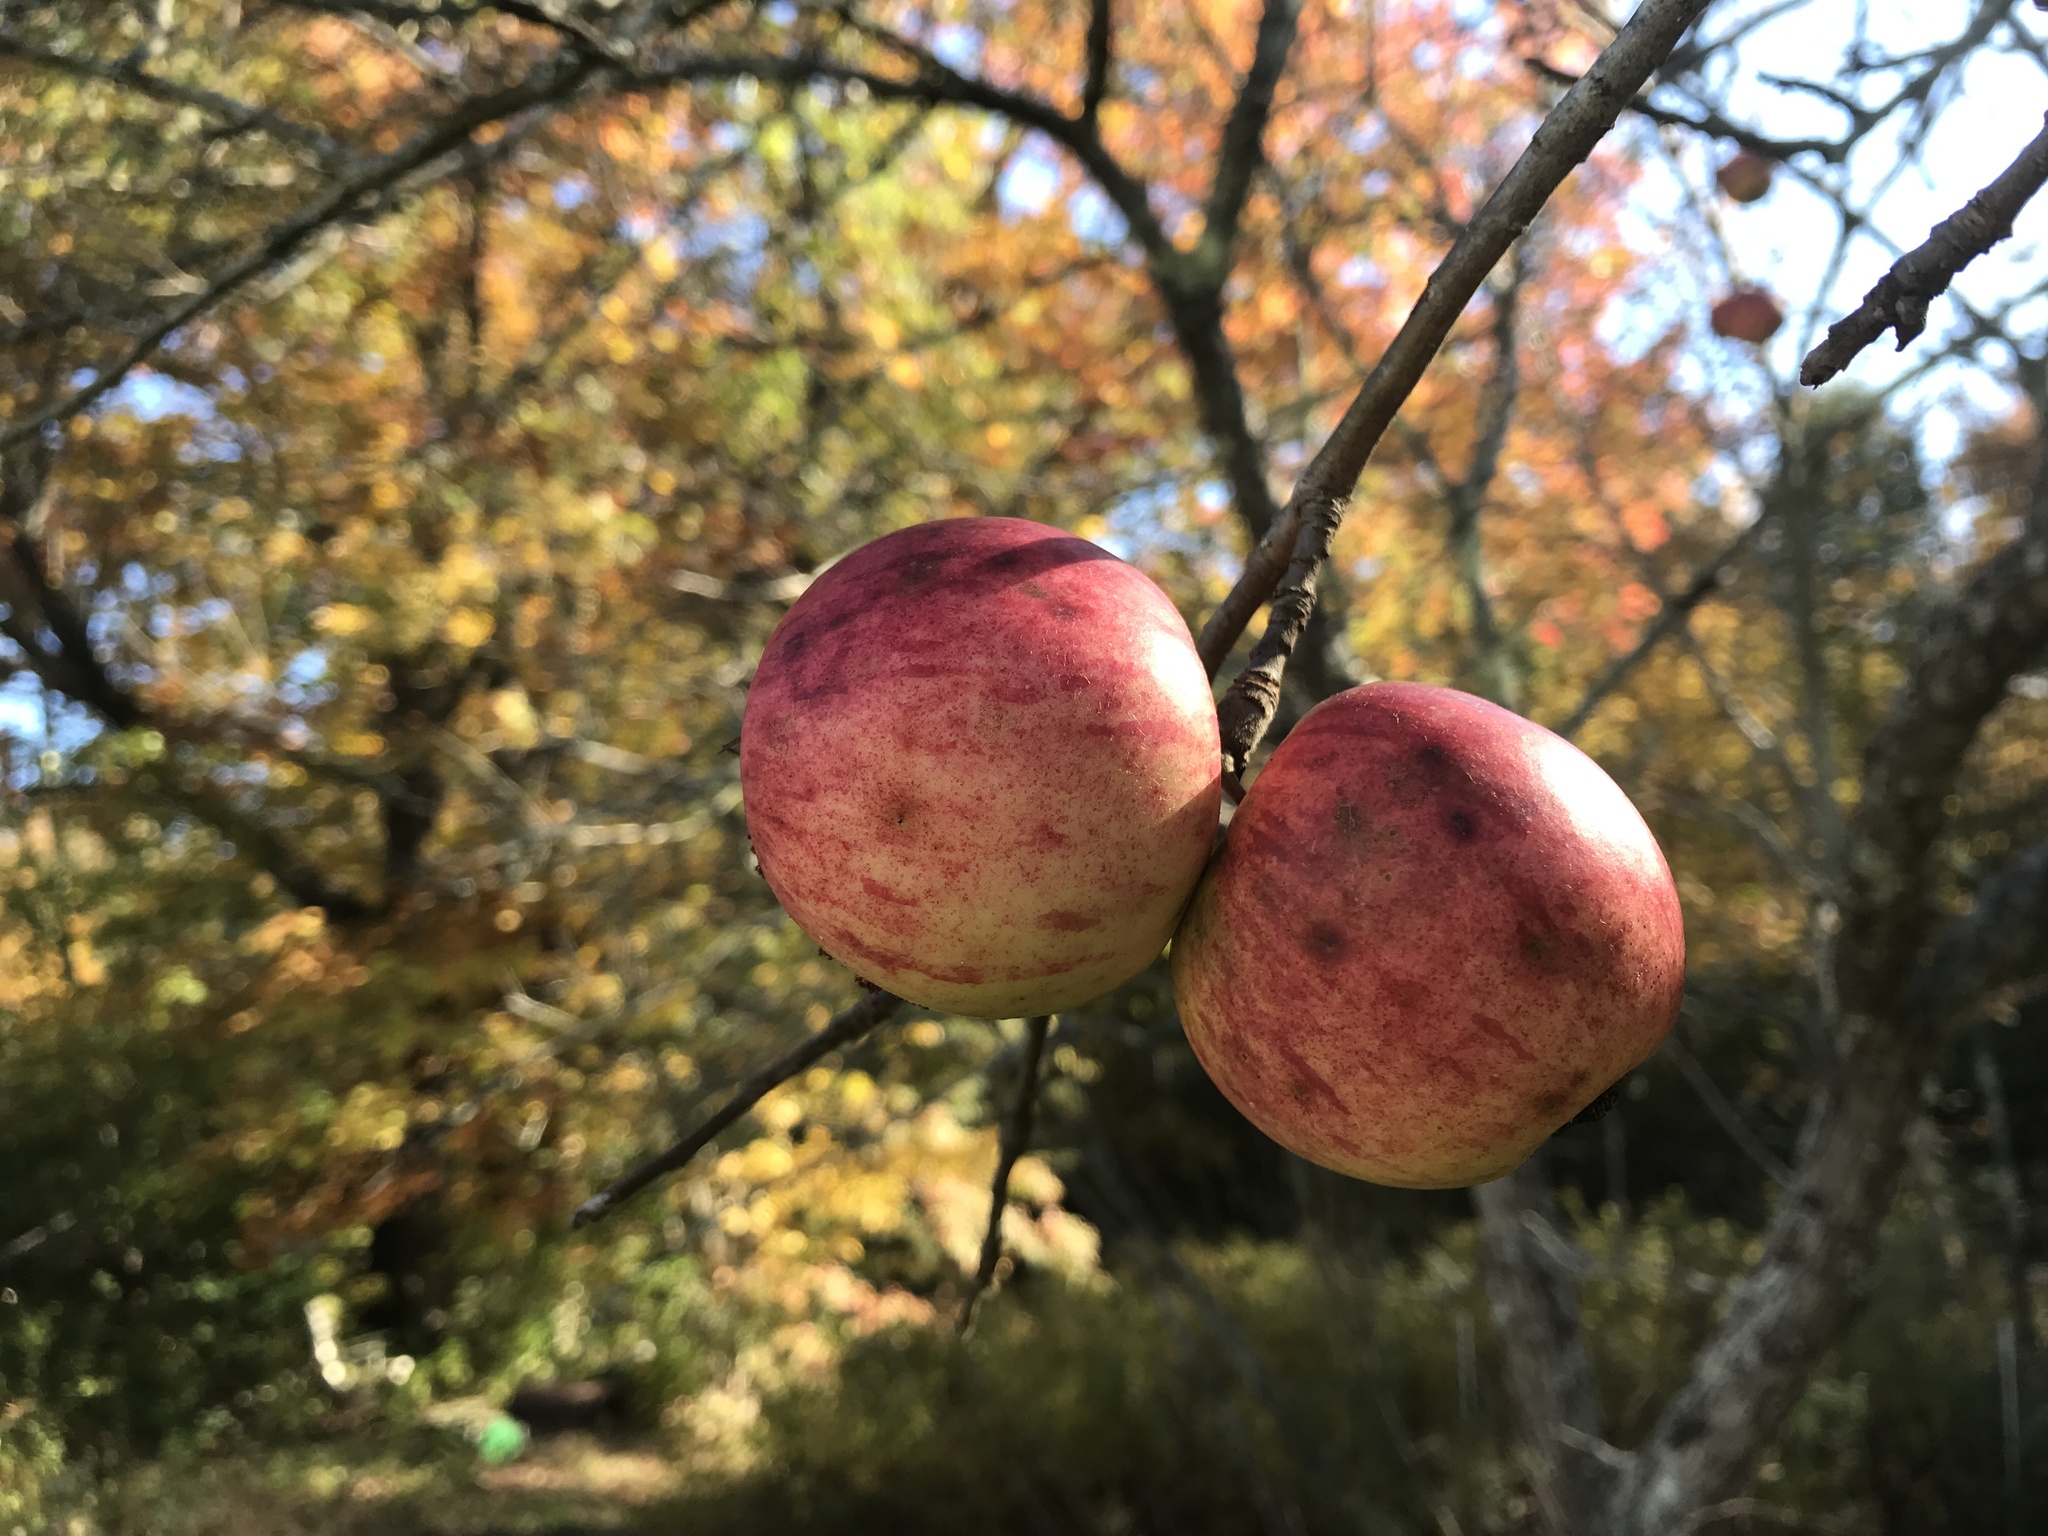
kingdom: Plantae
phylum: Tracheophyta
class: Magnoliopsida
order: Rosales
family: Rosaceae
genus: Malus
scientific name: Malus domestica
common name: Apple
